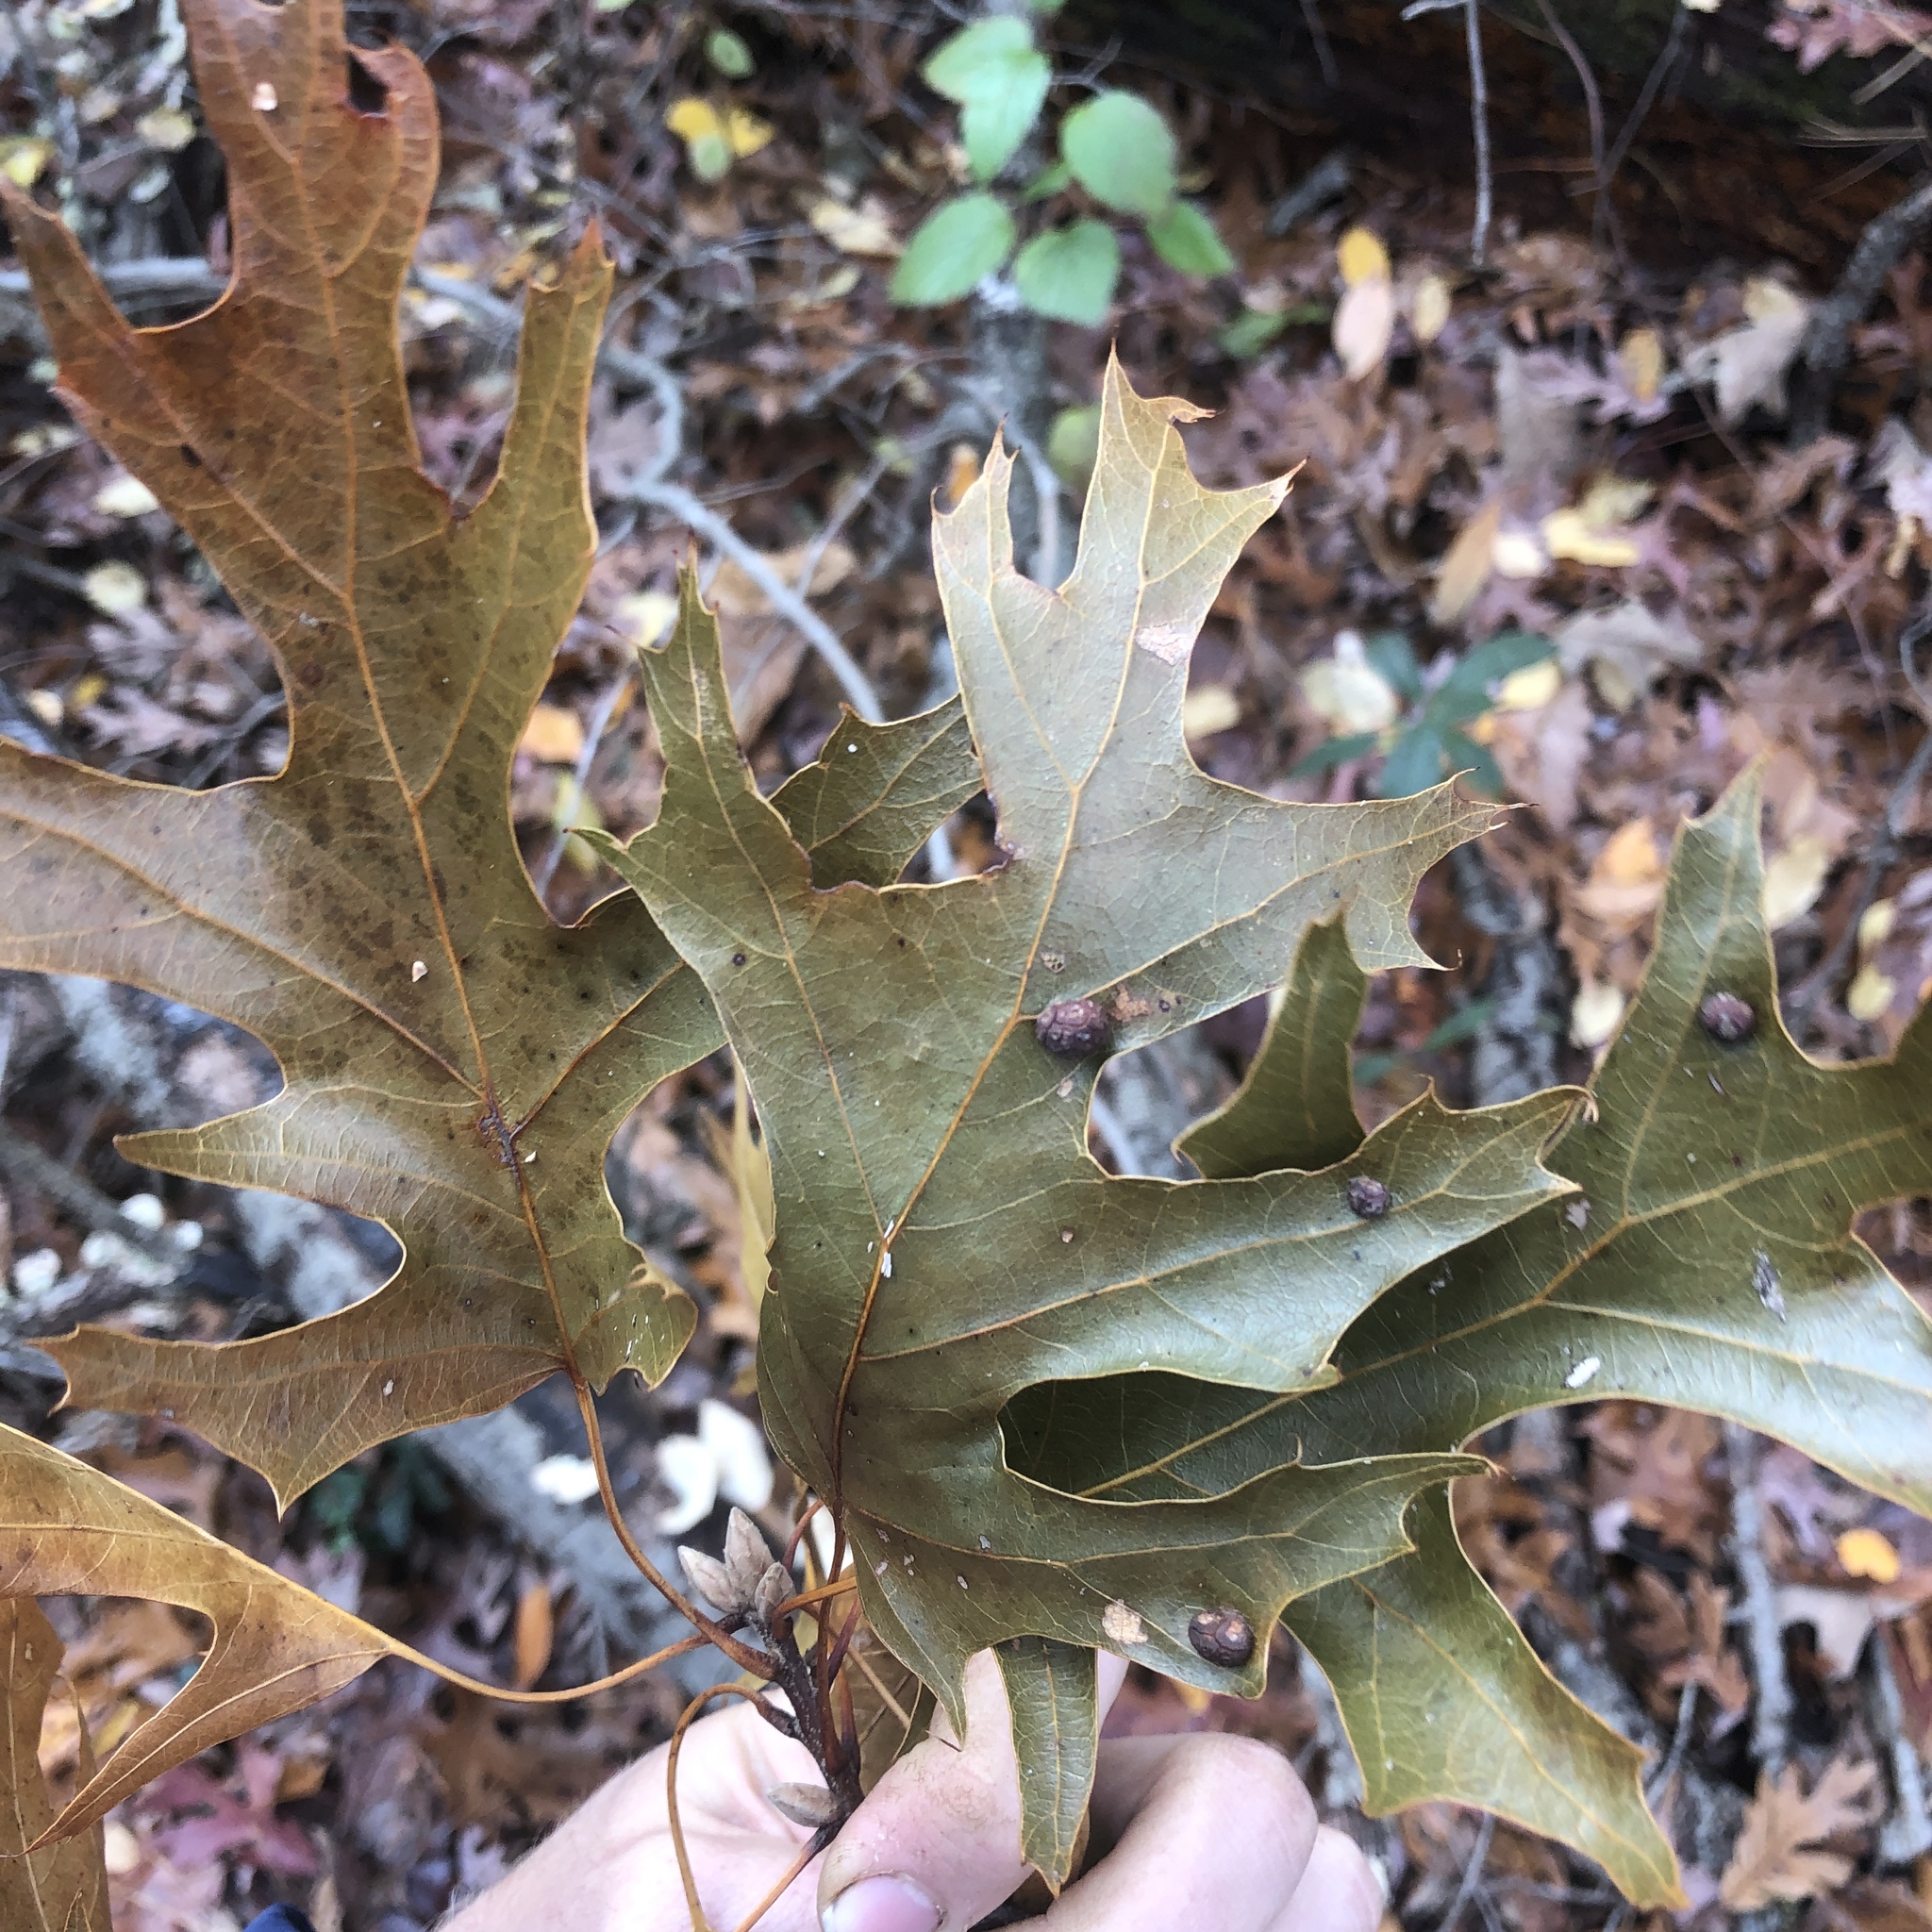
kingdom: Plantae
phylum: Tracheophyta
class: Magnoliopsida
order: Fagales
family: Fagaceae
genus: Quercus
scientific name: Quercus velutina
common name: Black oak
